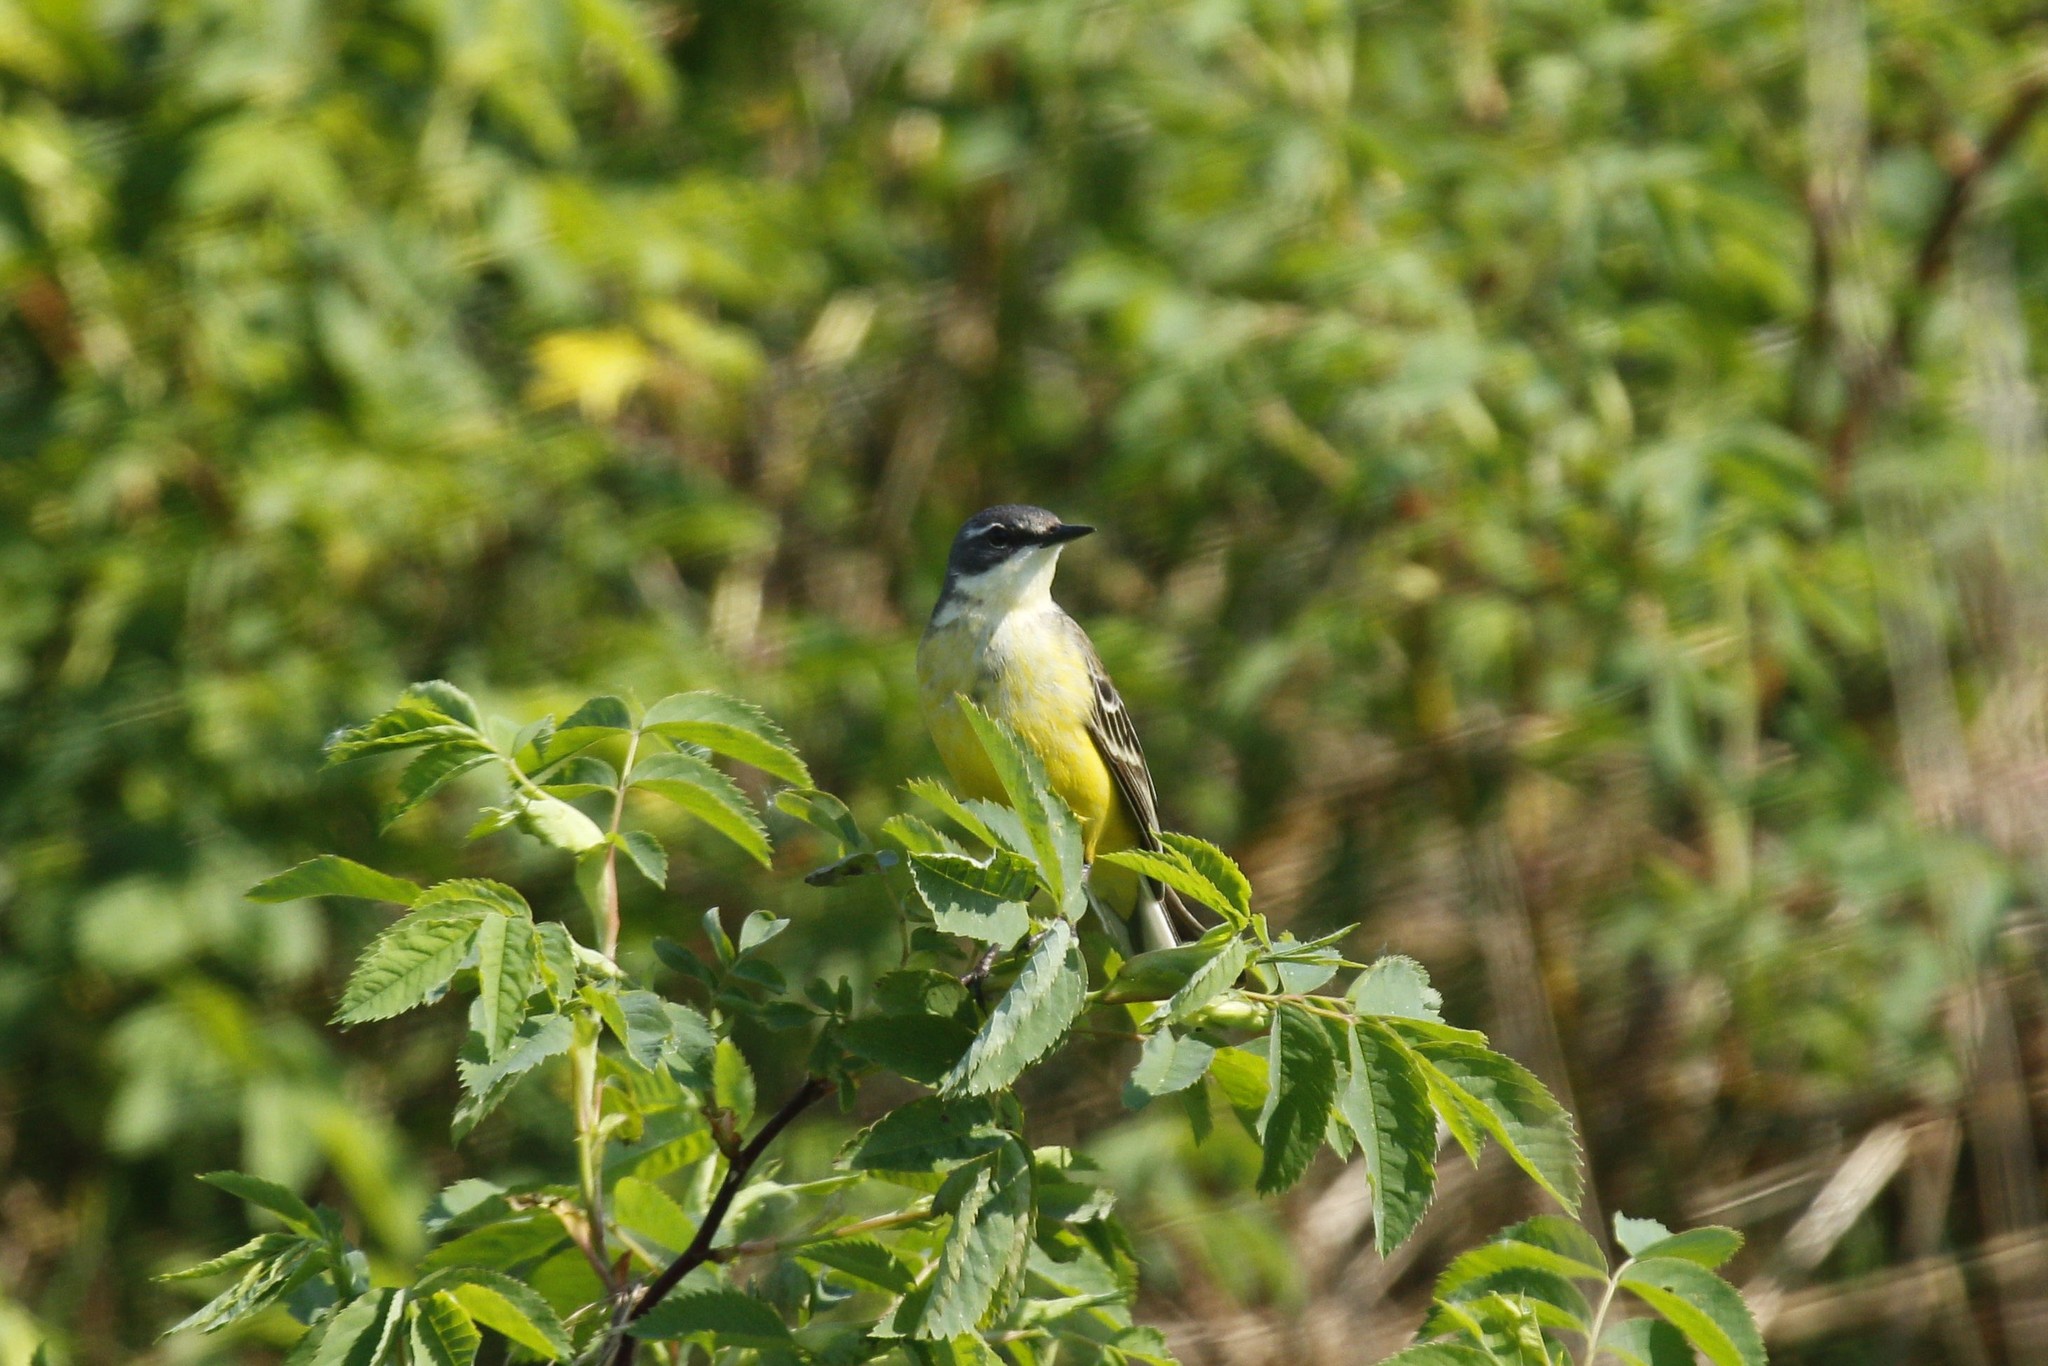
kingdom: Animalia
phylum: Chordata
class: Aves
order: Passeriformes
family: Motacillidae
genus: Motacilla
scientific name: Motacilla flava
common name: Western yellow wagtail
